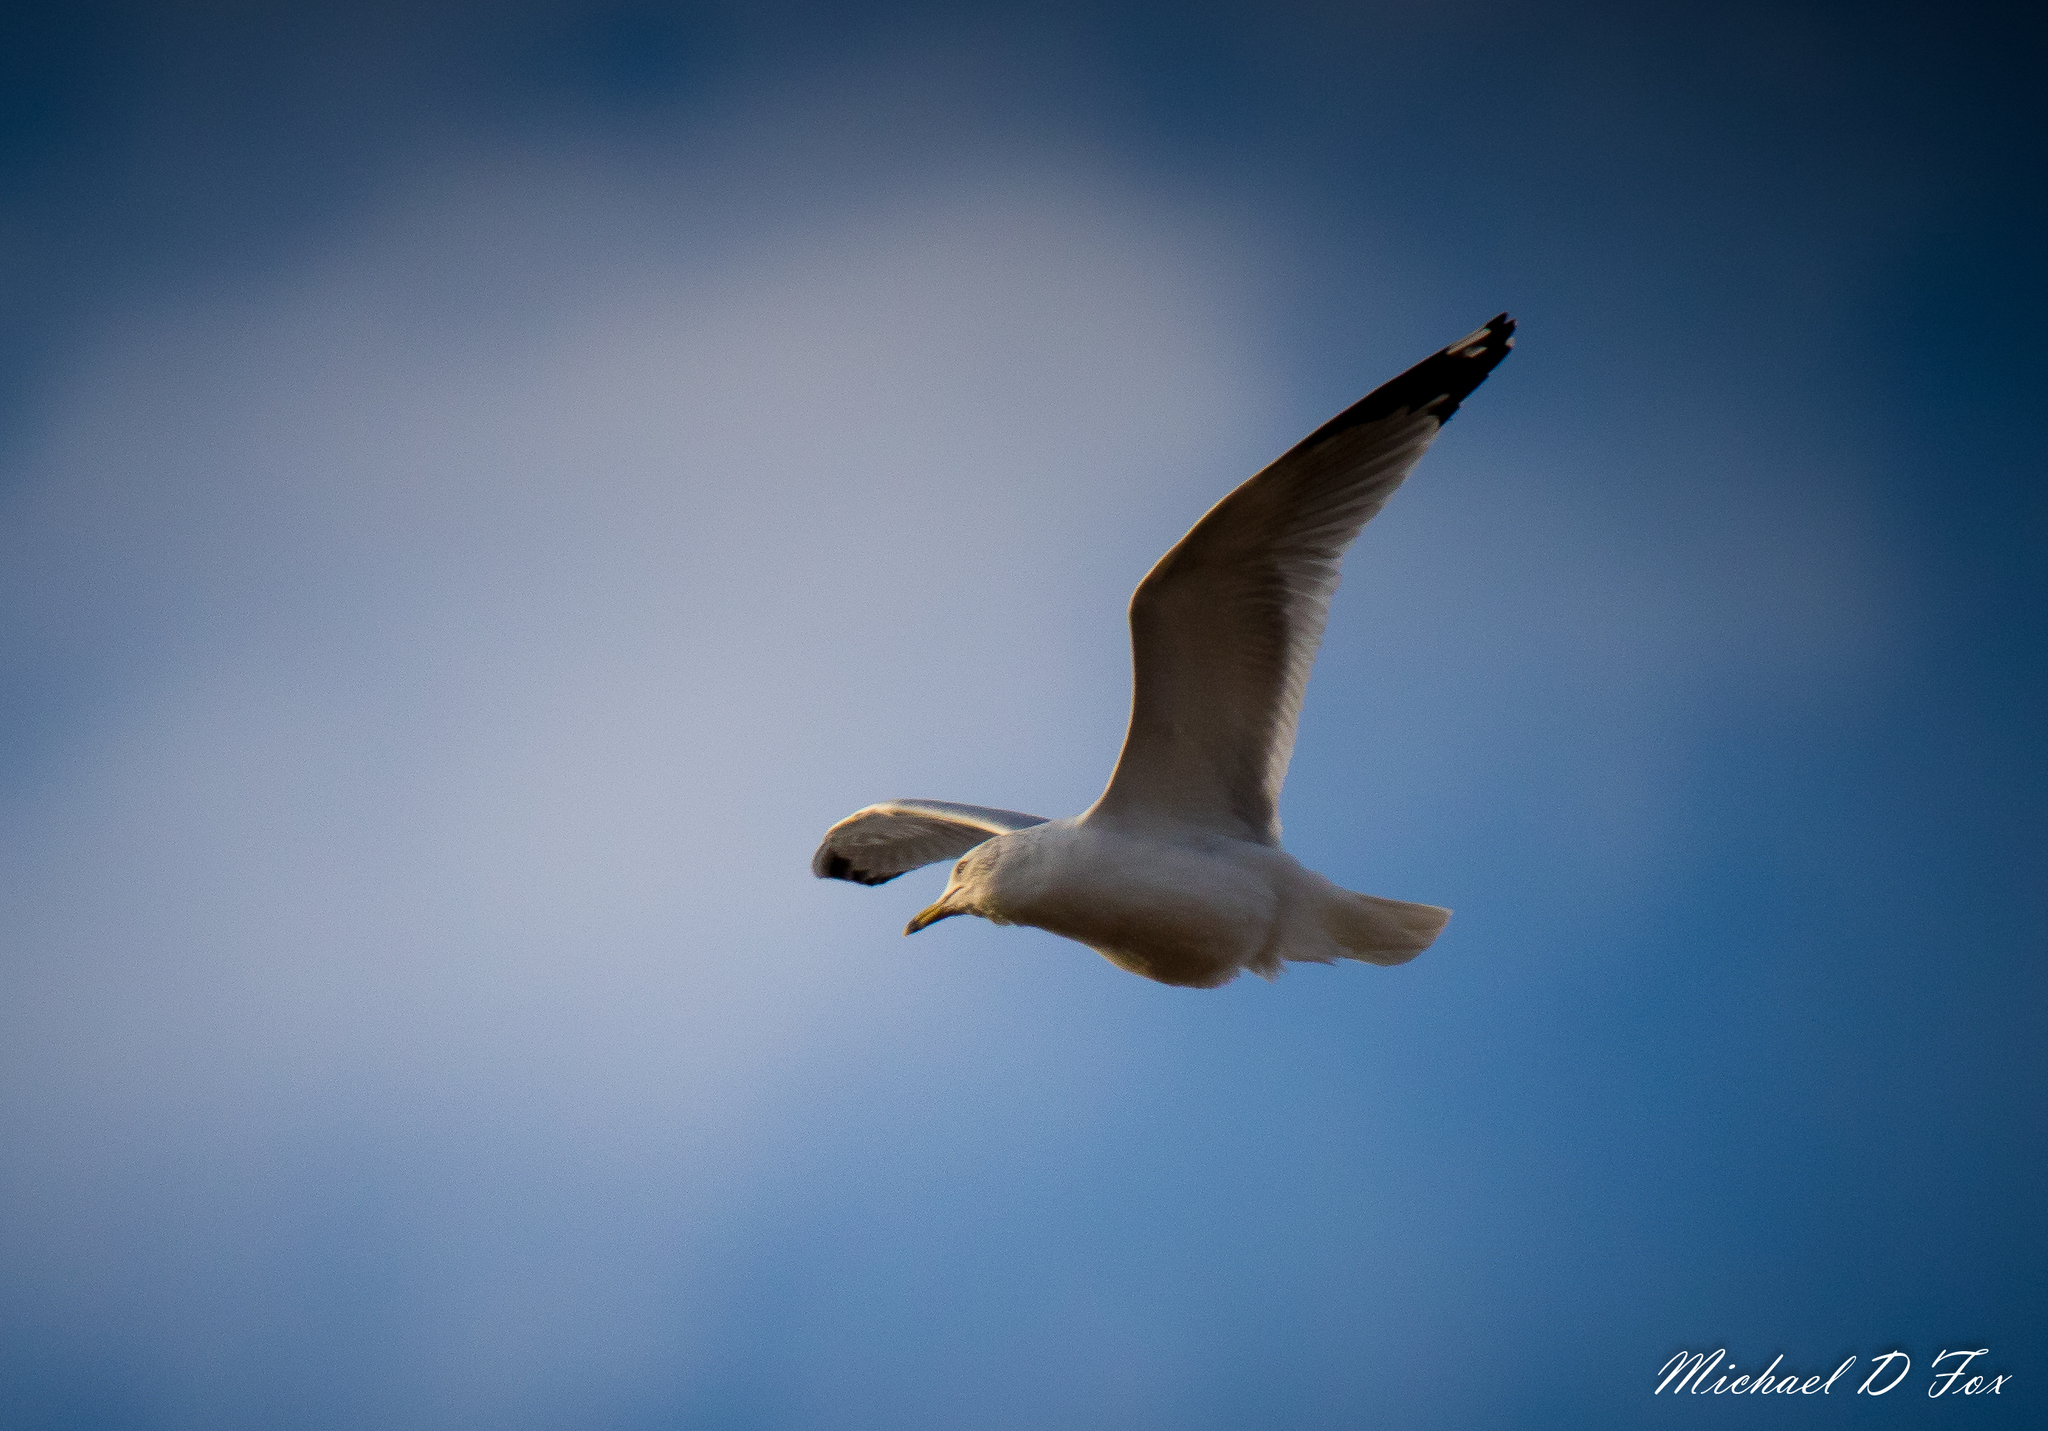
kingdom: Animalia
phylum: Chordata
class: Aves
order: Charadriiformes
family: Laridae
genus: Larus
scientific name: Larus delawarensis
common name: Ring-billed gull
